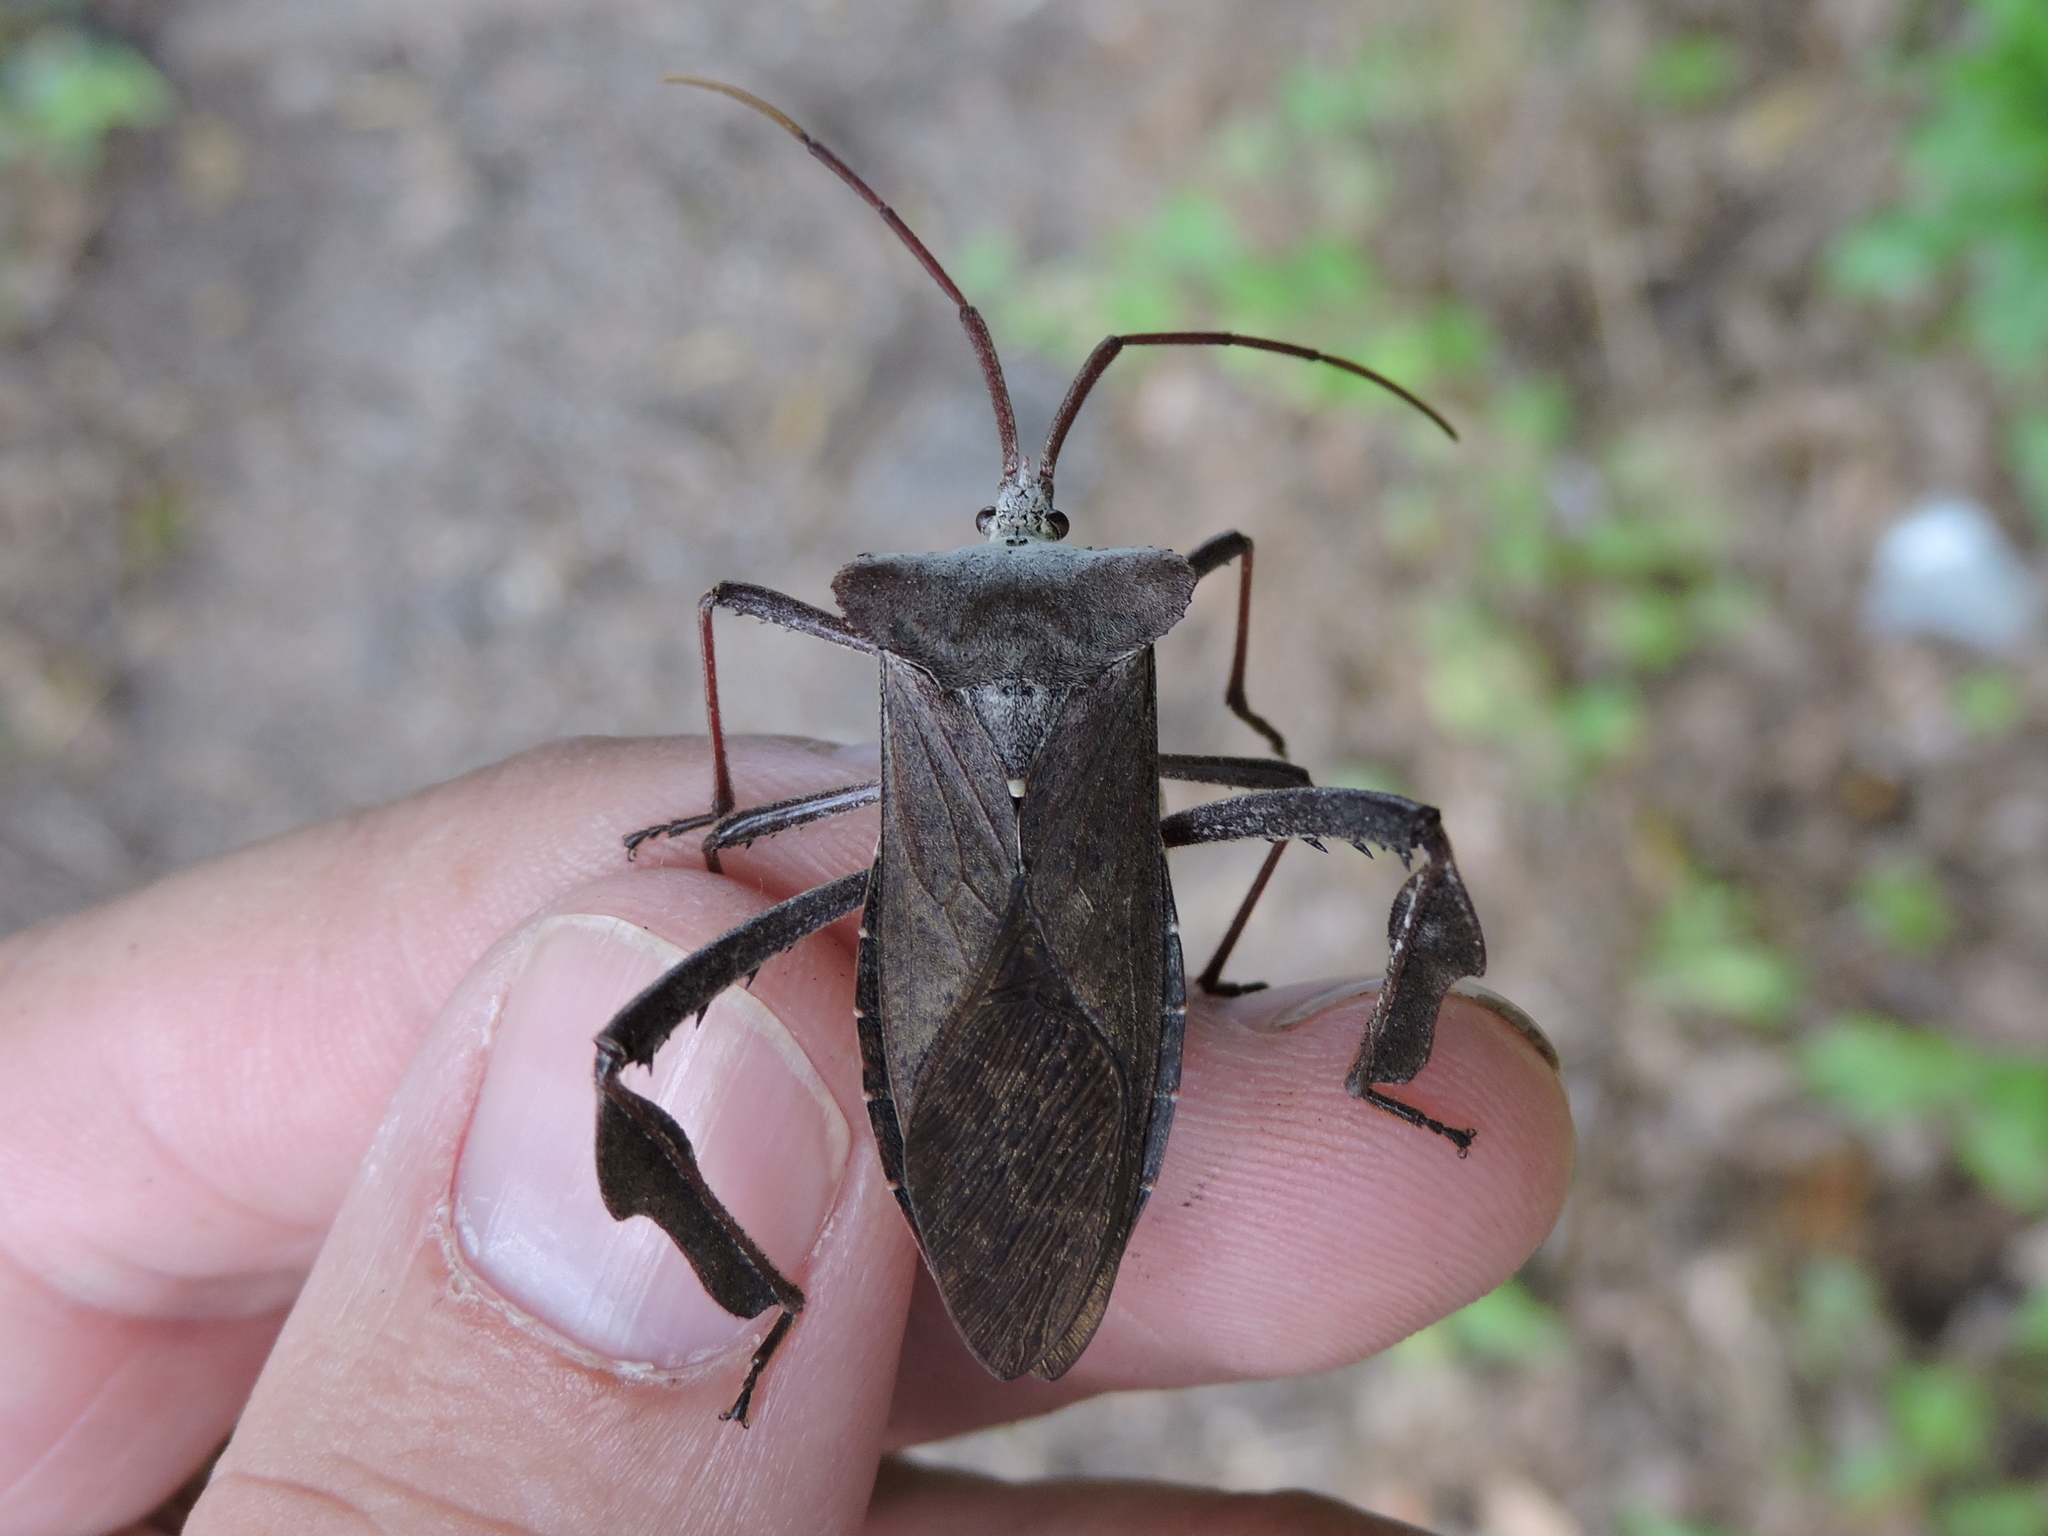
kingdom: Animalia
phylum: Arthropoda
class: Insecta
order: Hemiptera
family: Coreidae
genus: Acanthocephala
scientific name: Acanthocephala declivis
